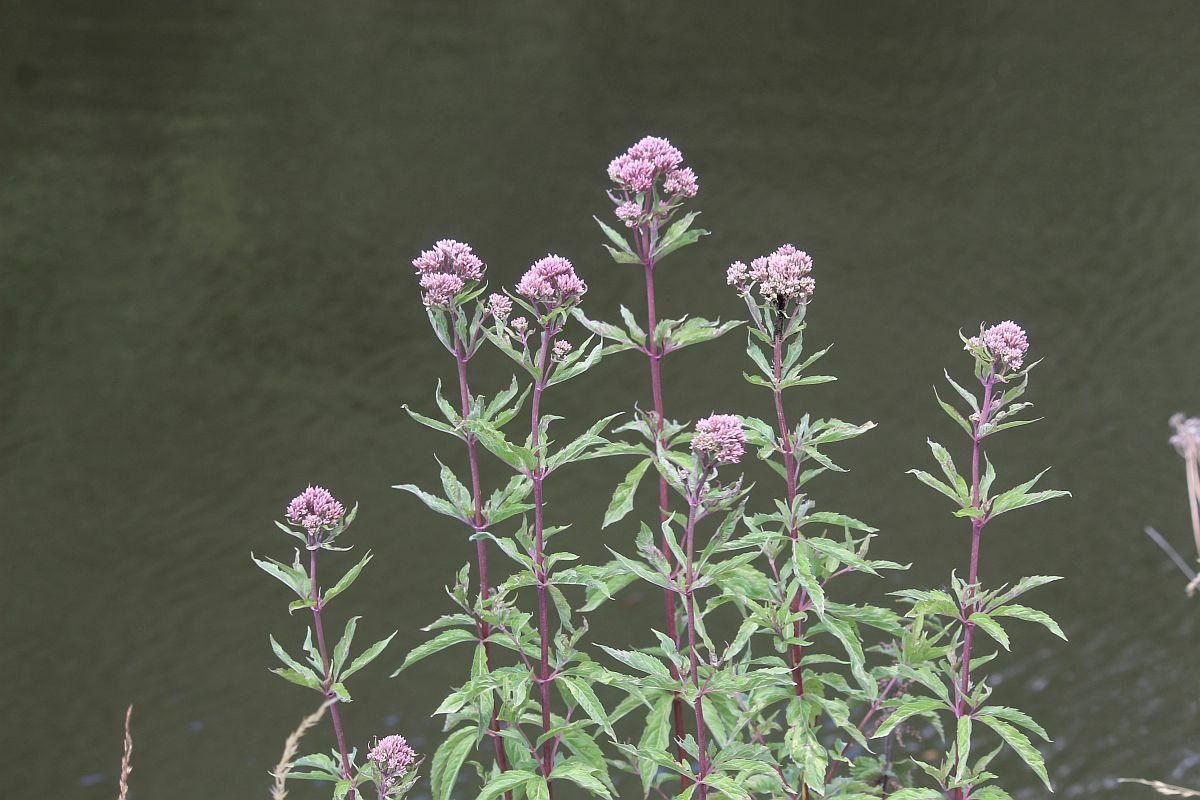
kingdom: Plantae
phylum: Tracheophyta
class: Magnoliopsida
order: Asterales
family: Asteraceae
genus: Eupatorium
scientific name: Eupatorium cannabinum
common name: Hemp-agrimony
